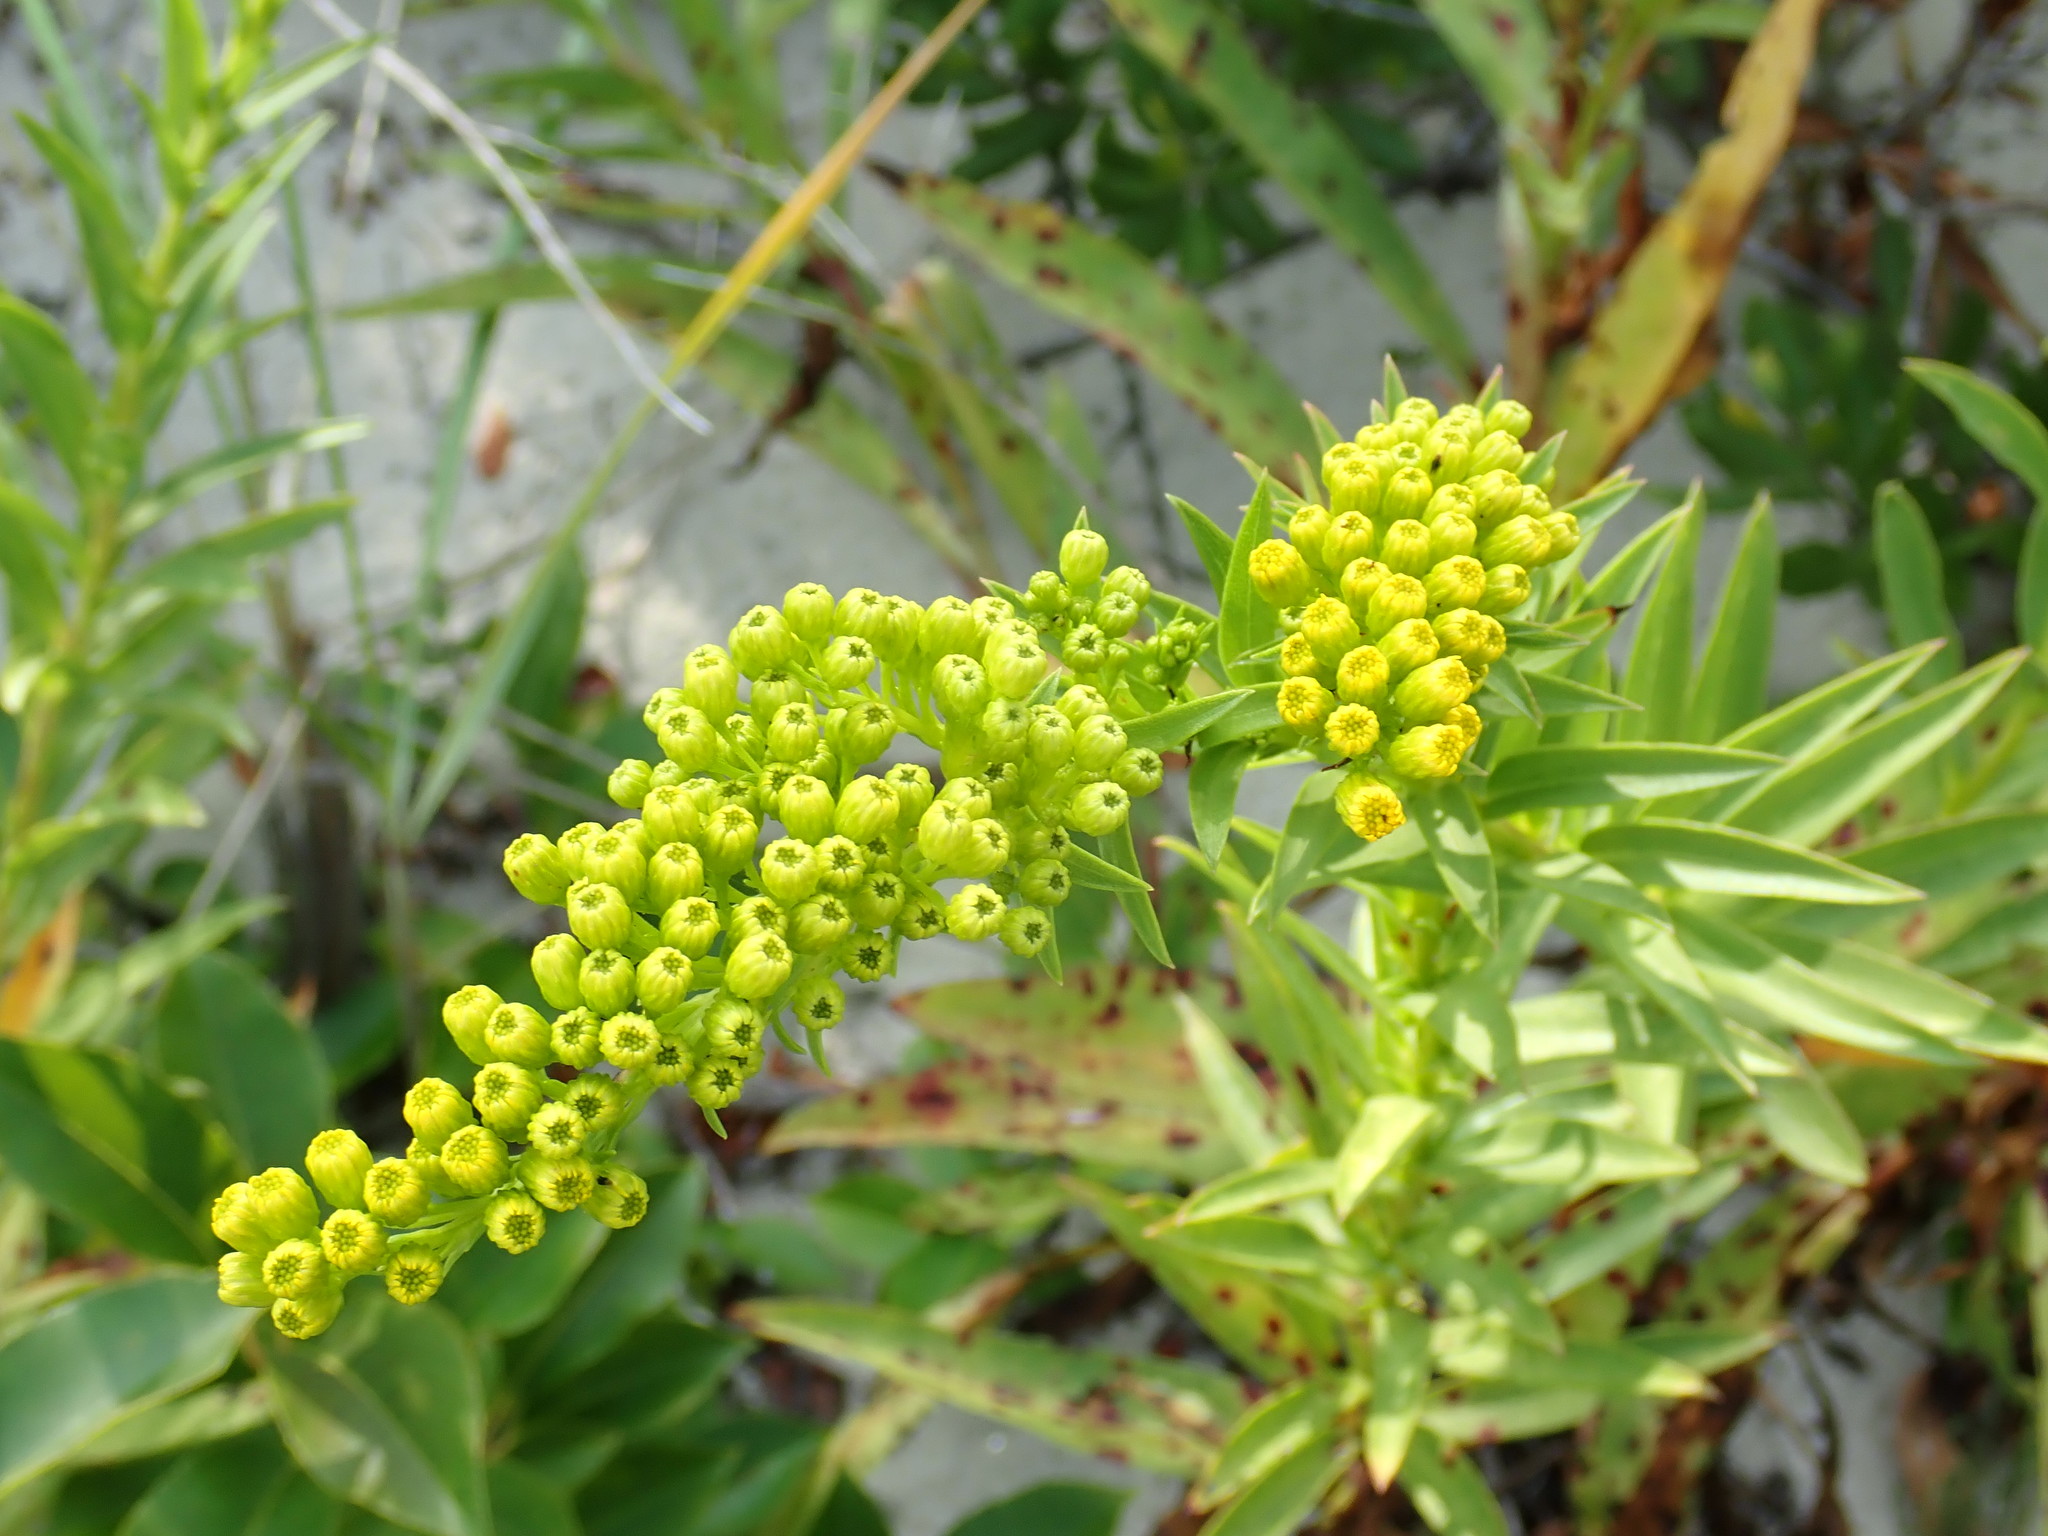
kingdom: Plantae
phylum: Tracheophyta
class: Magnoliopsida
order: Asterales
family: Asteraceae
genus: Solidago
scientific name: Solidago sempervirens
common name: Salt-marsh goldenrod
